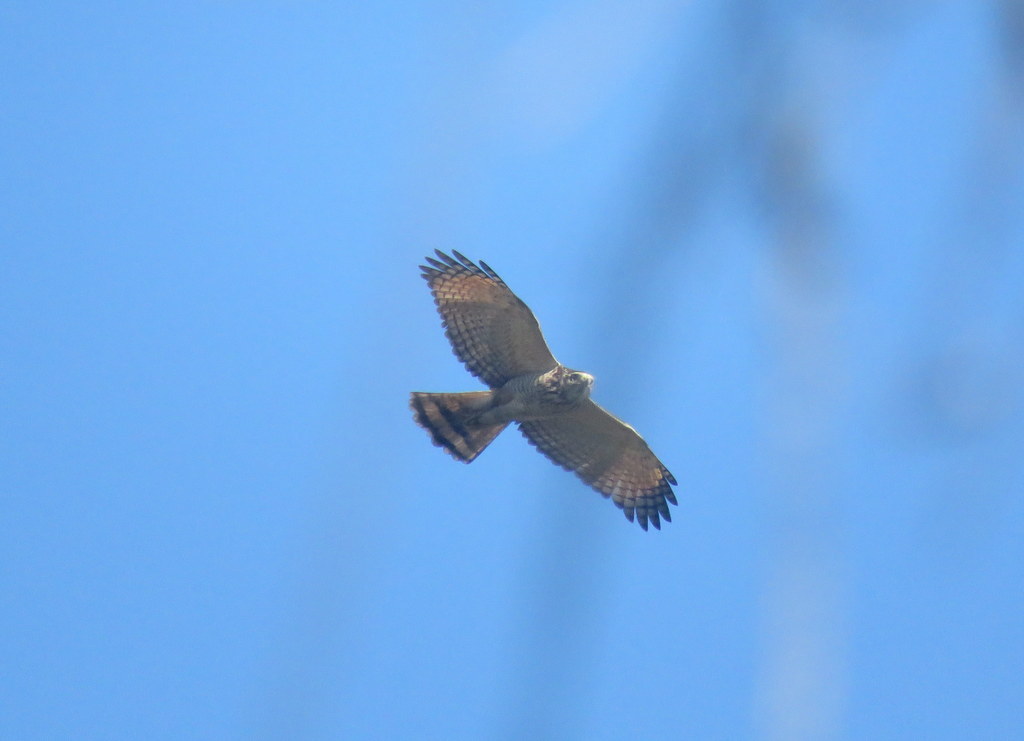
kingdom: Animalia
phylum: Chordata
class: Aves
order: Accipitriformes
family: Accipitridae
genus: Rupornis
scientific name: Rupornis magnirostris
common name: Roadside hawk
